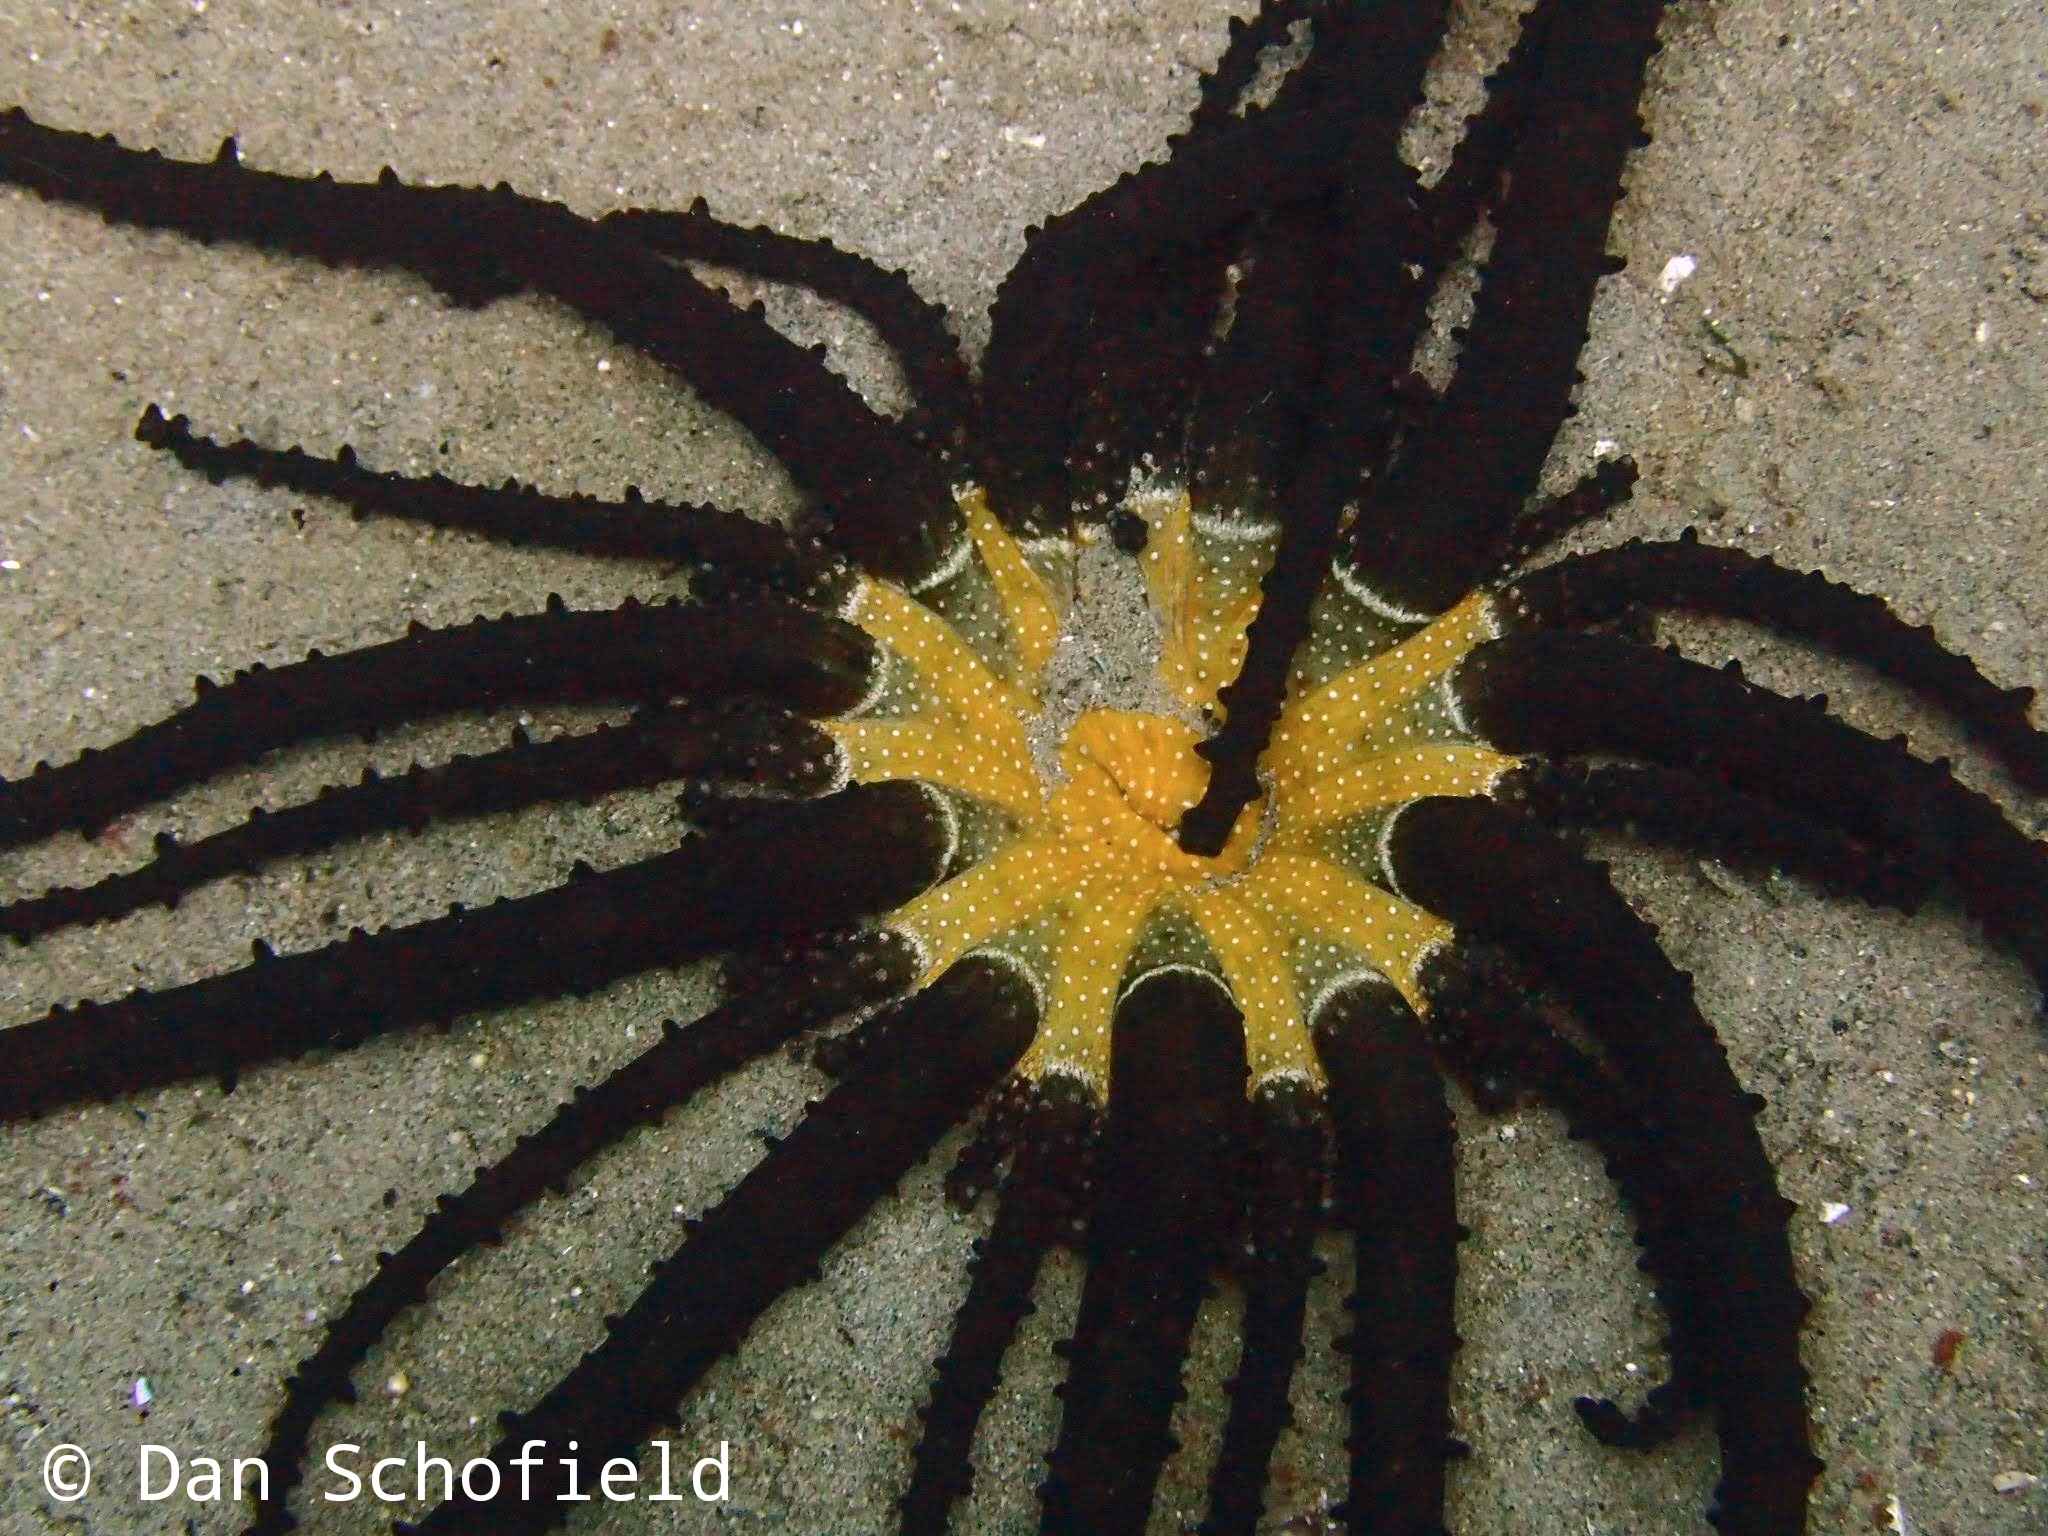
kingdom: Animalia
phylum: Cnidaria
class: Anthozoa
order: Actiniaria
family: Actinodendridae
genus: Actinostephanus
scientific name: Actinostephanus haeckeli
